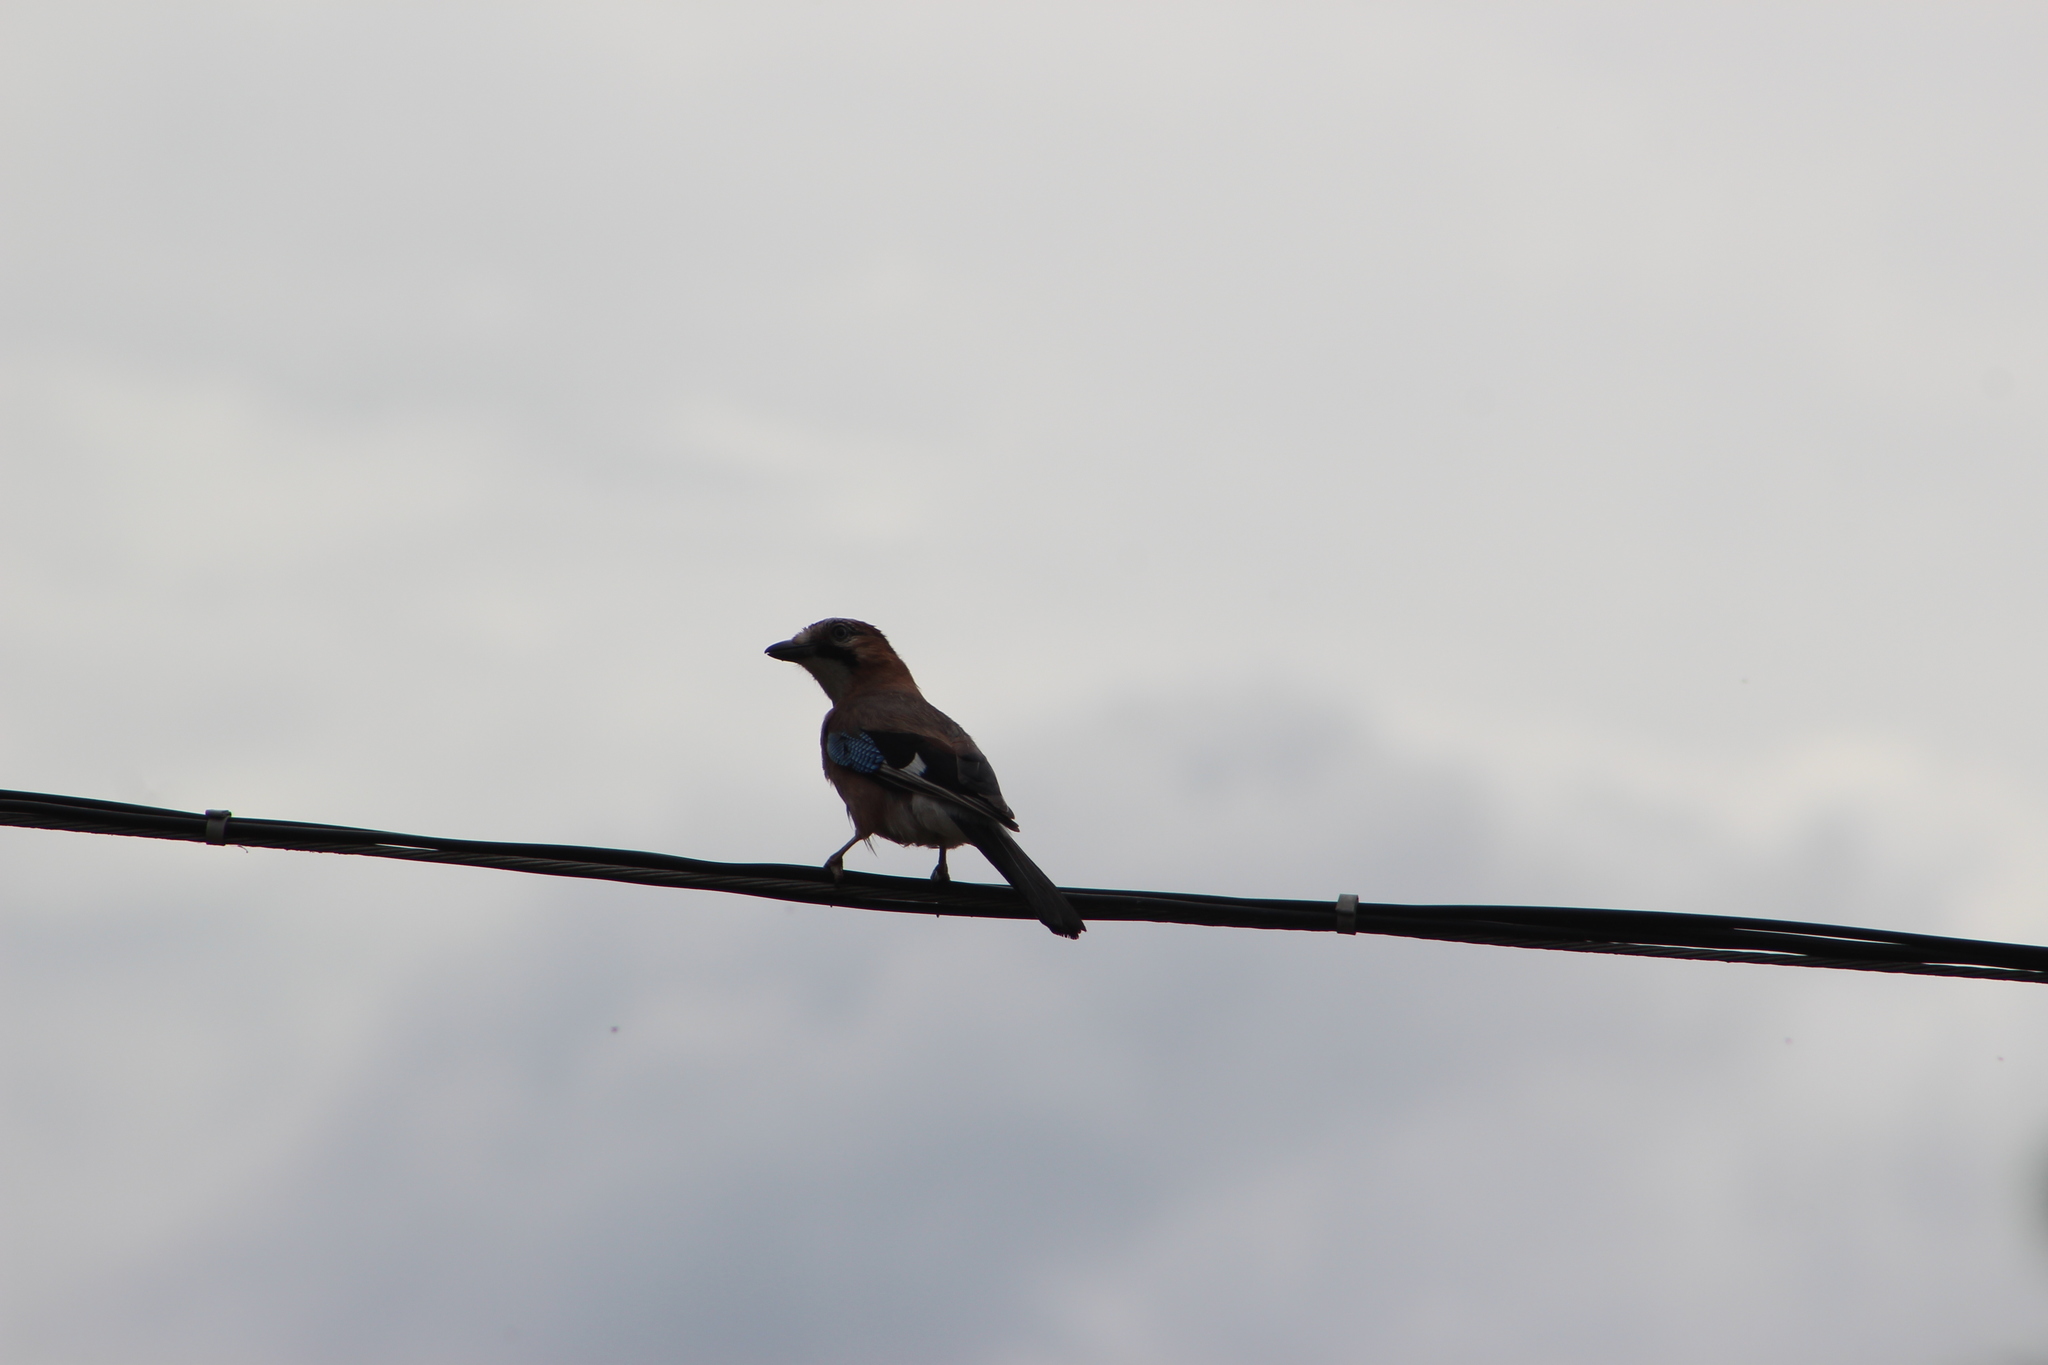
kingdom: Animalia
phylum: Chordata
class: Aves
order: Passeriformes
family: Corvidae
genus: Garrulus
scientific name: Garrulus glandarius
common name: Eurasian jay
